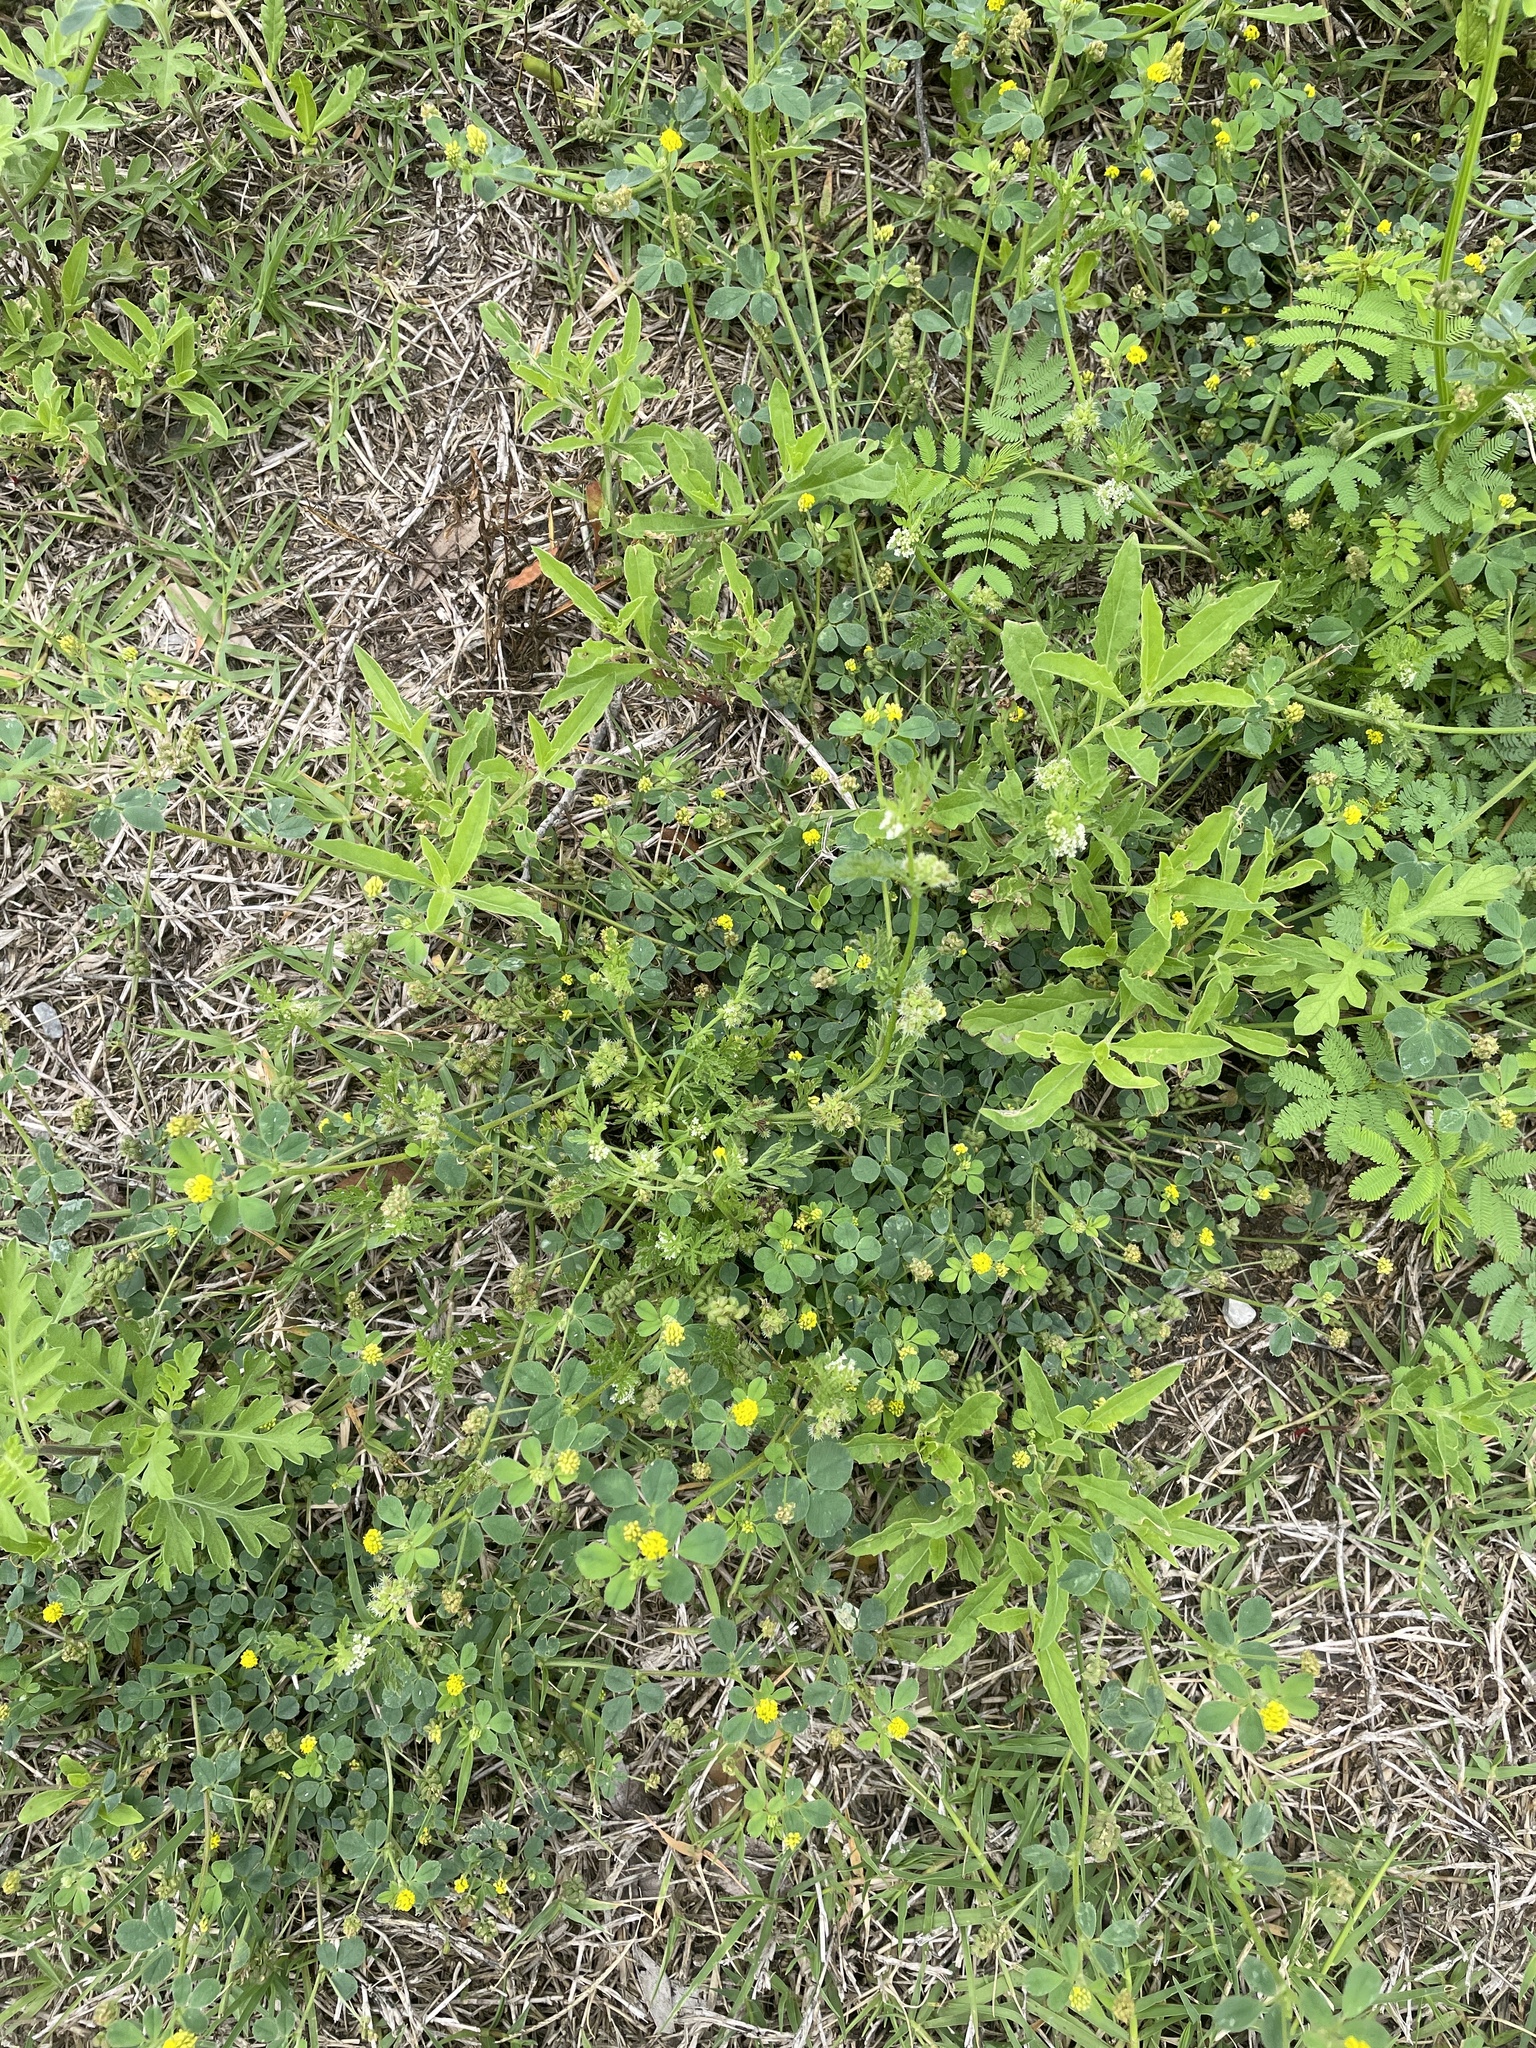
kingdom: Plantae
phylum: Tracheophyta
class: Magnoliopsida
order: Apiales
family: Apiaceae
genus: Torilis
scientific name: Torilis nodosa
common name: Knotted hedge-parsley
